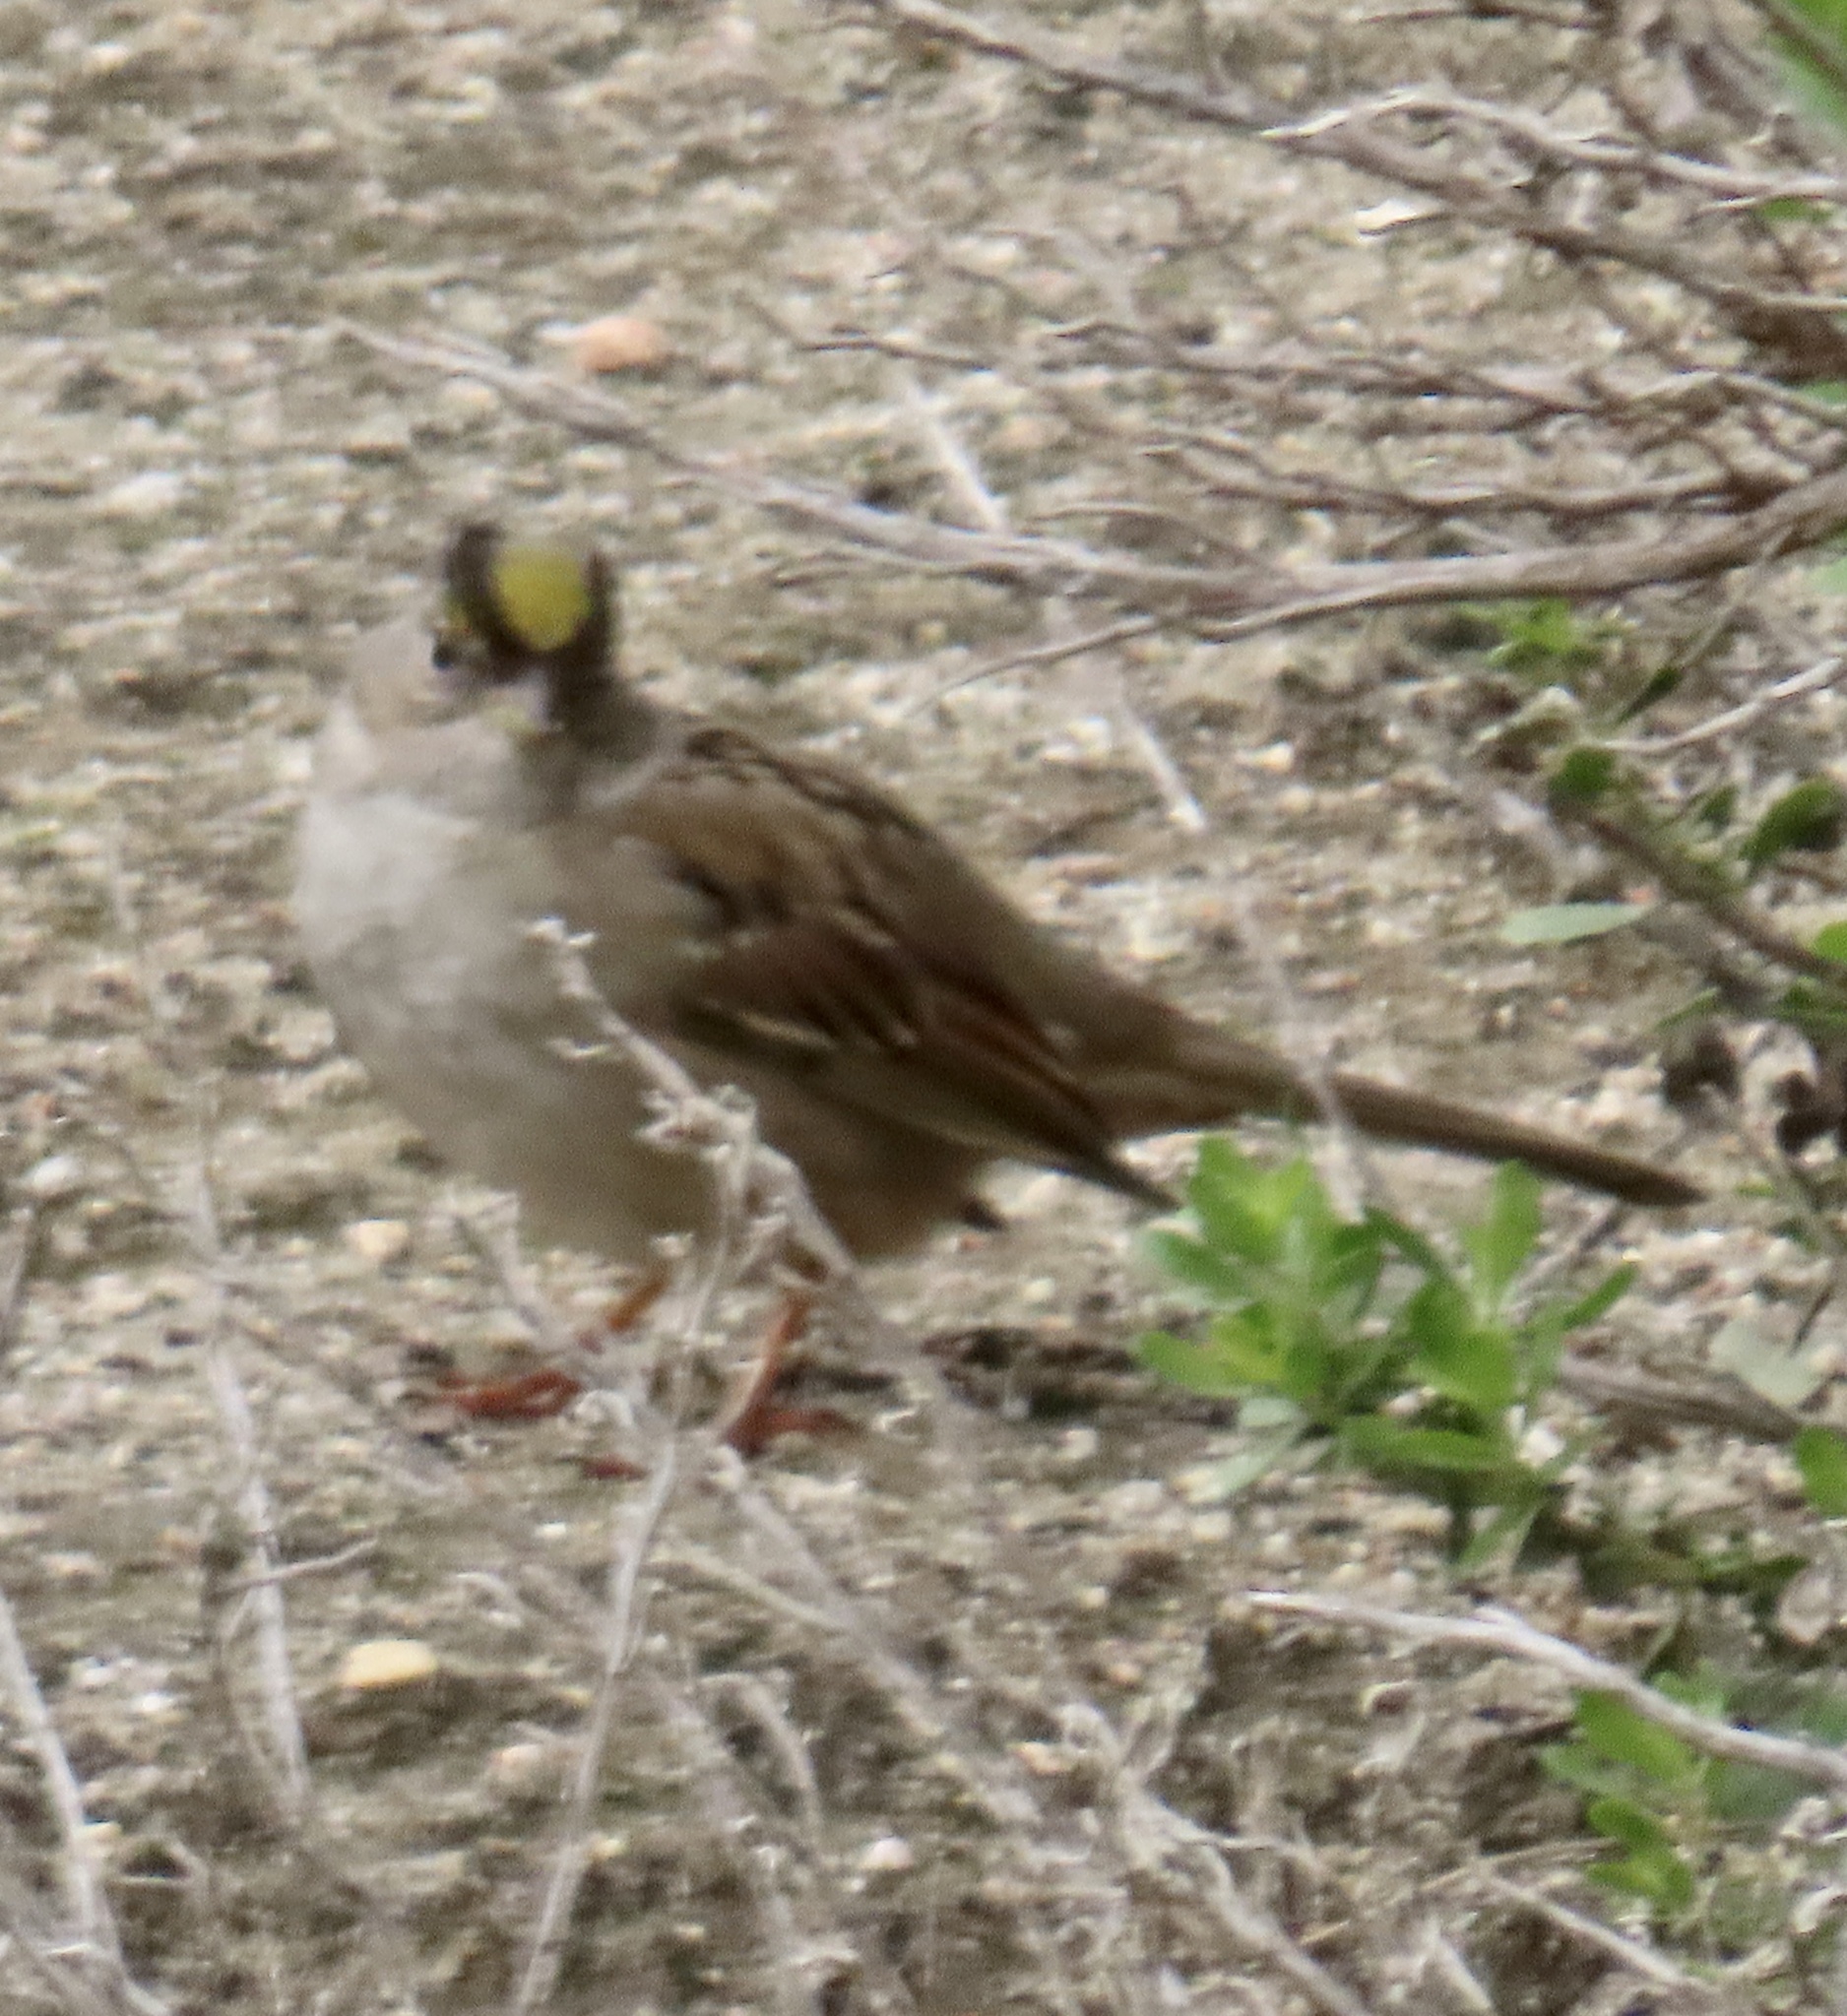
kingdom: Animalia
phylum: Chordata
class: Aves
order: Passeriformes
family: Passerellidae
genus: Zonotrichia
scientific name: Zonotrichia atricapilla
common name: Golden-crowned sparrow
